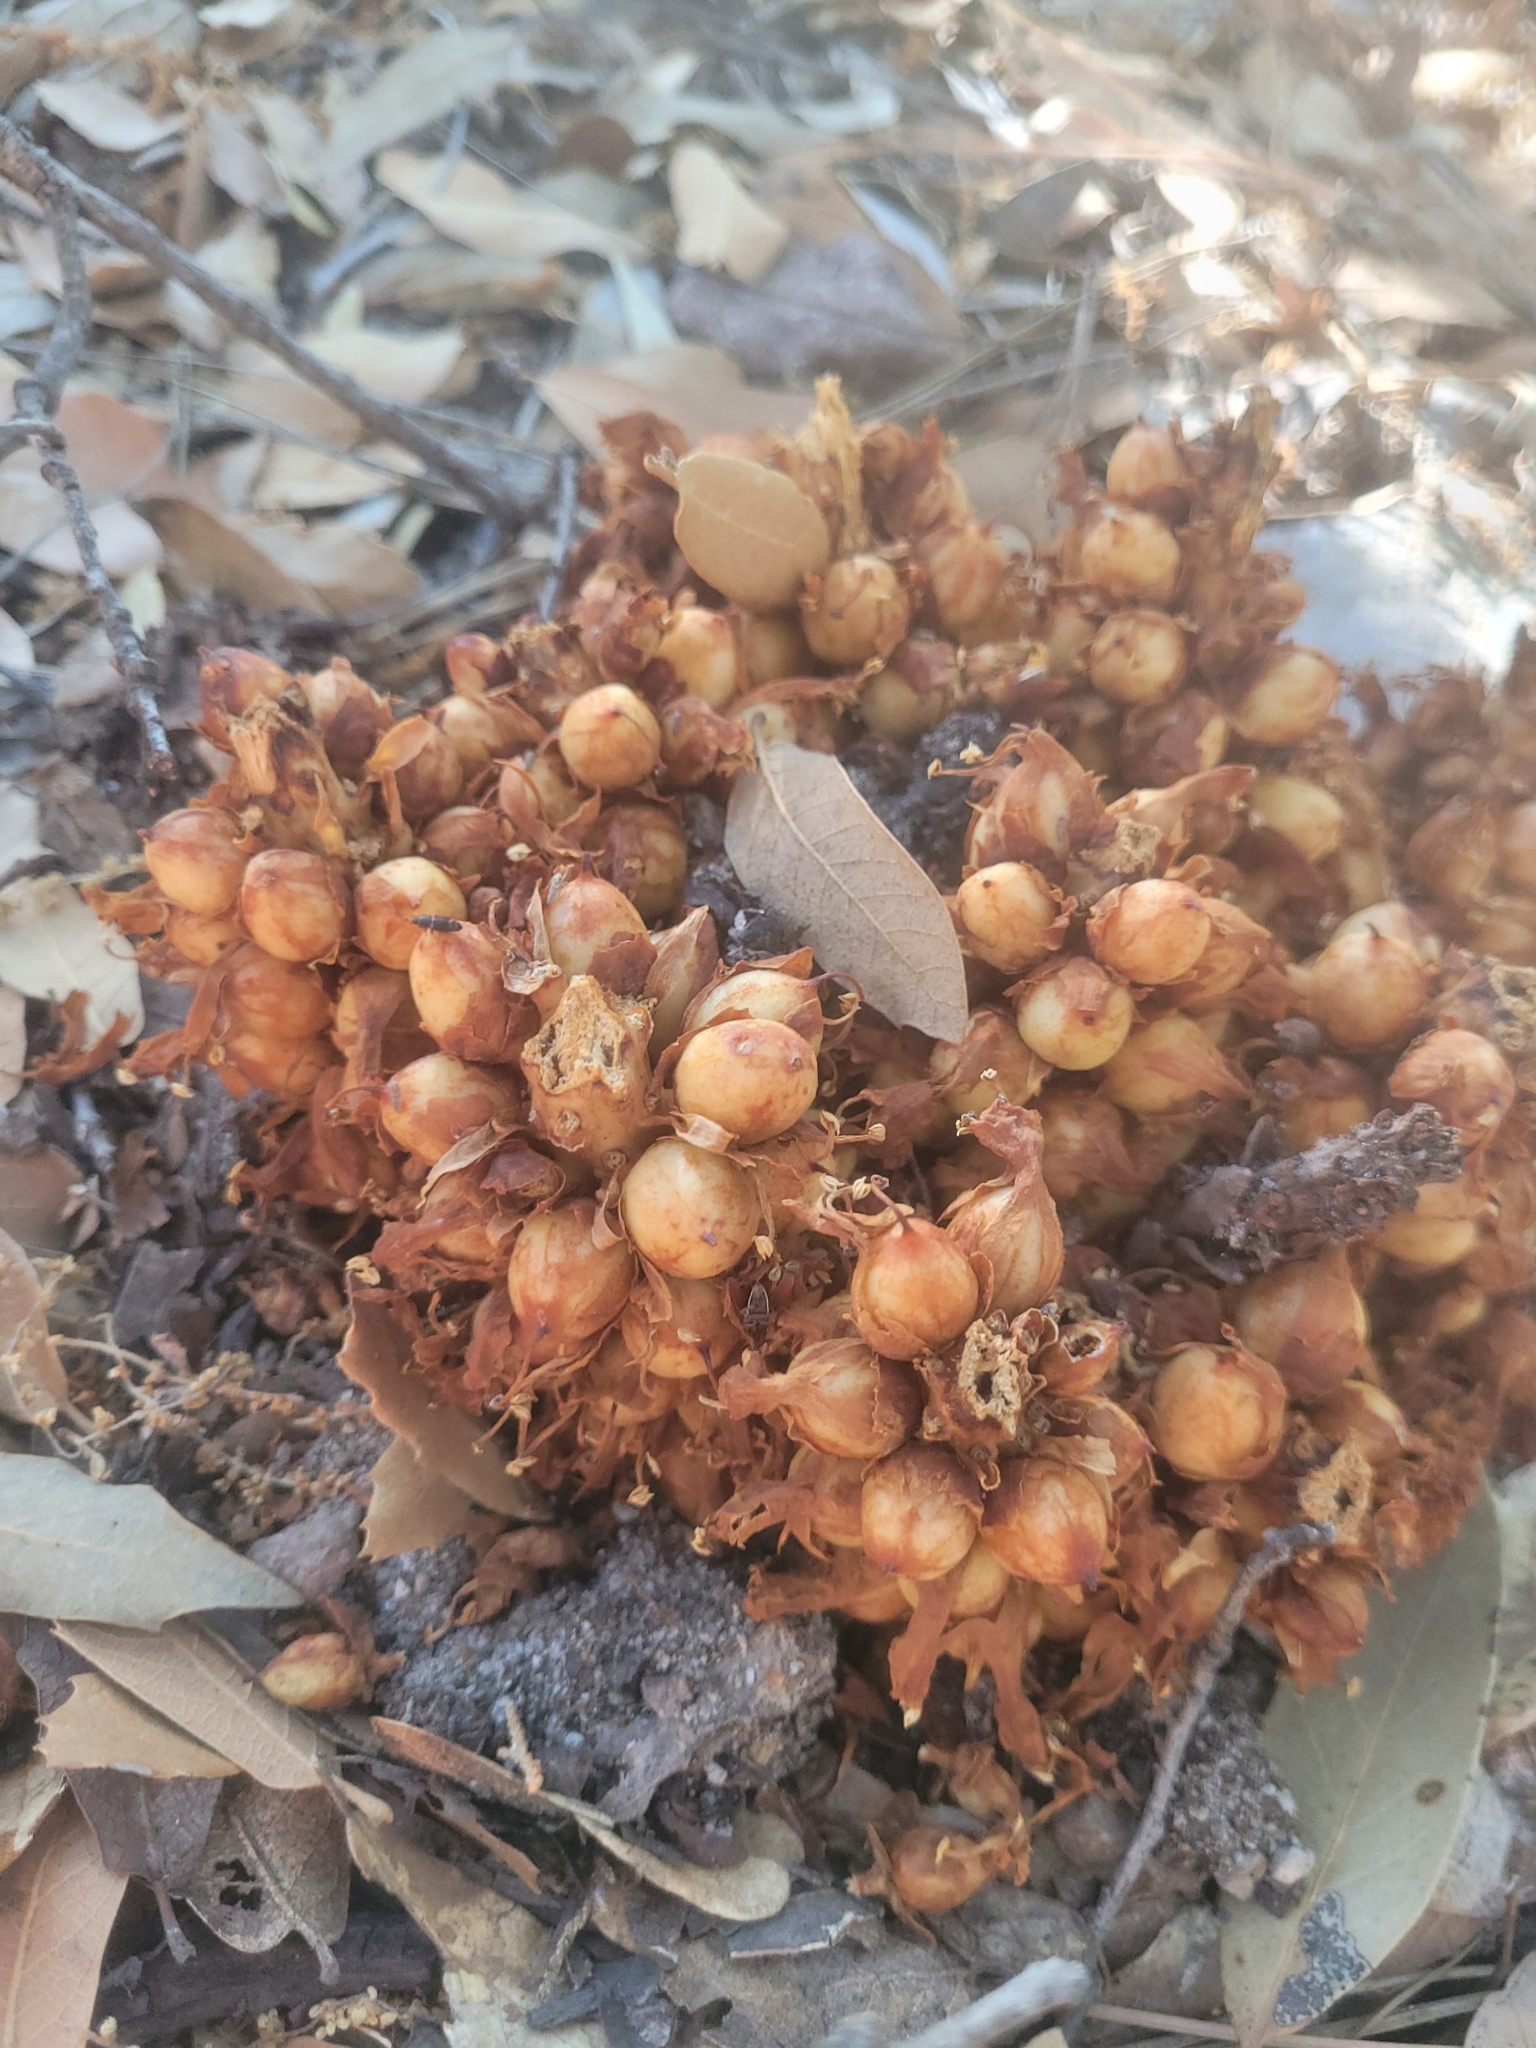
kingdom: Plantae
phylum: Tracheophyta
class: Magnoliopsida
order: Lamiales
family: Orobanchaceae
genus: Conopholis
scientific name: Conopholis alpina
